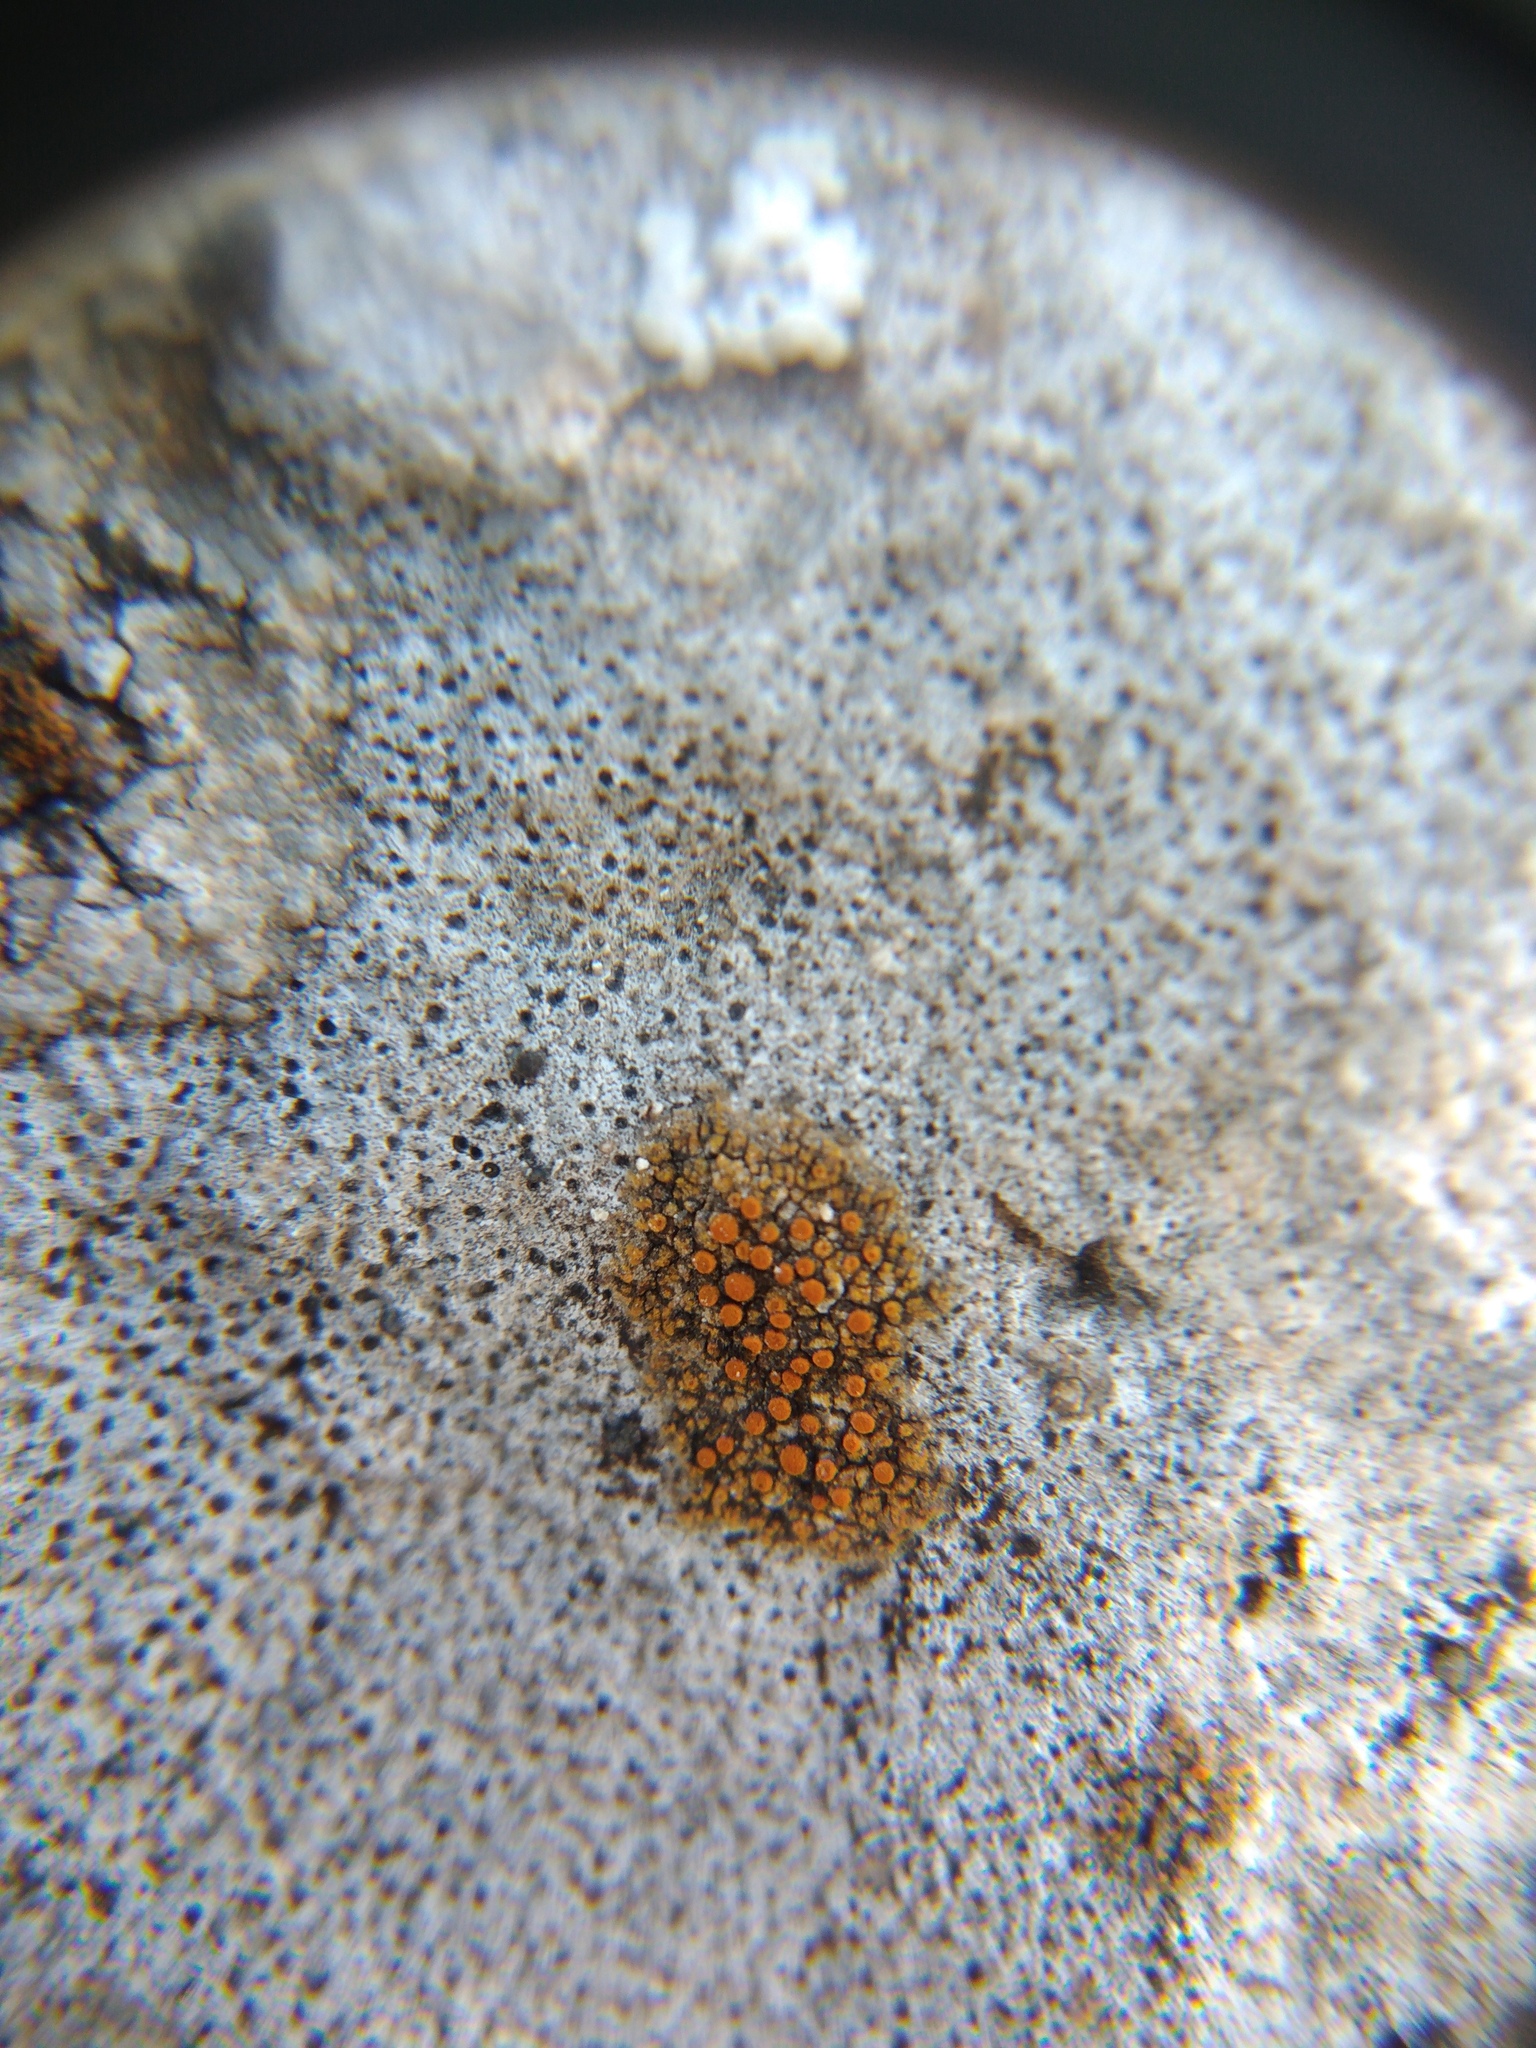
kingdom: Fungi
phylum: Ascomycota
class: Lecanoromycetes
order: Teloschistales
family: Teloschistaceae
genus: Flavoplaca
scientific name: Flavoplaca oasis
